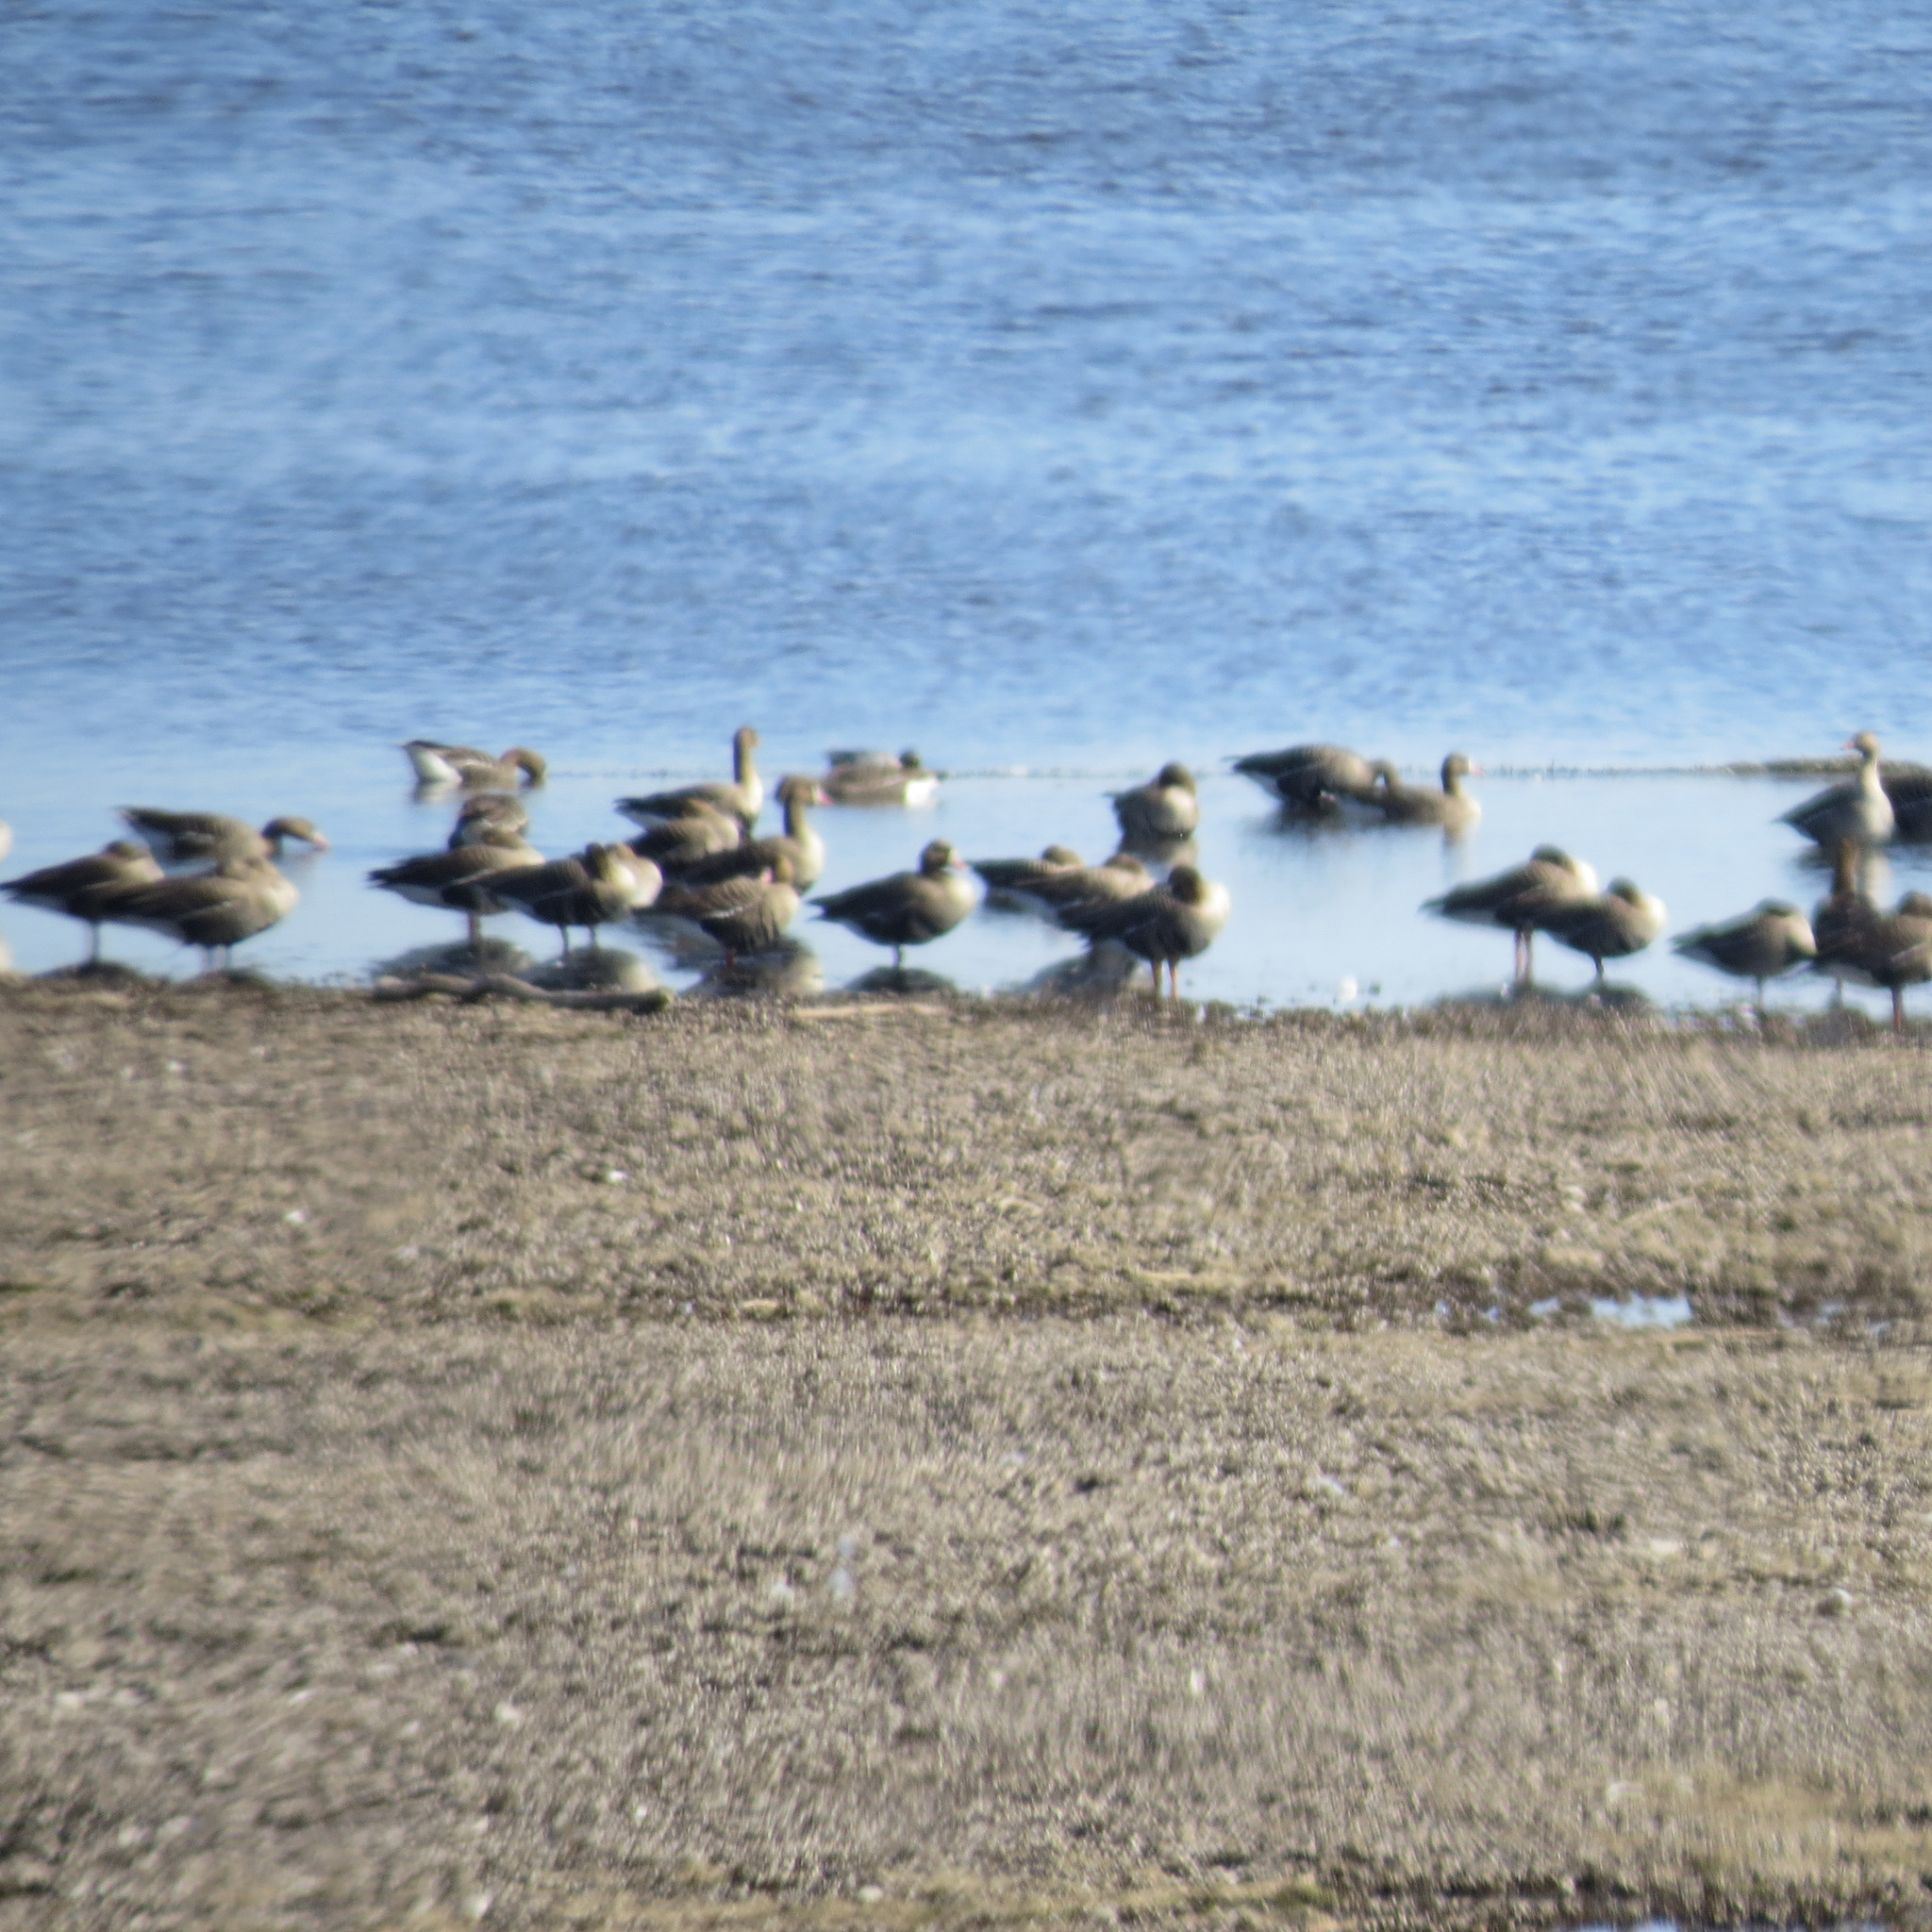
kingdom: Animalia
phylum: Chordata
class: Aves
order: Anseriformes
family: Anatidae
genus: Anser
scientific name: Anser albifrons
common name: Greater white-fronted goose
